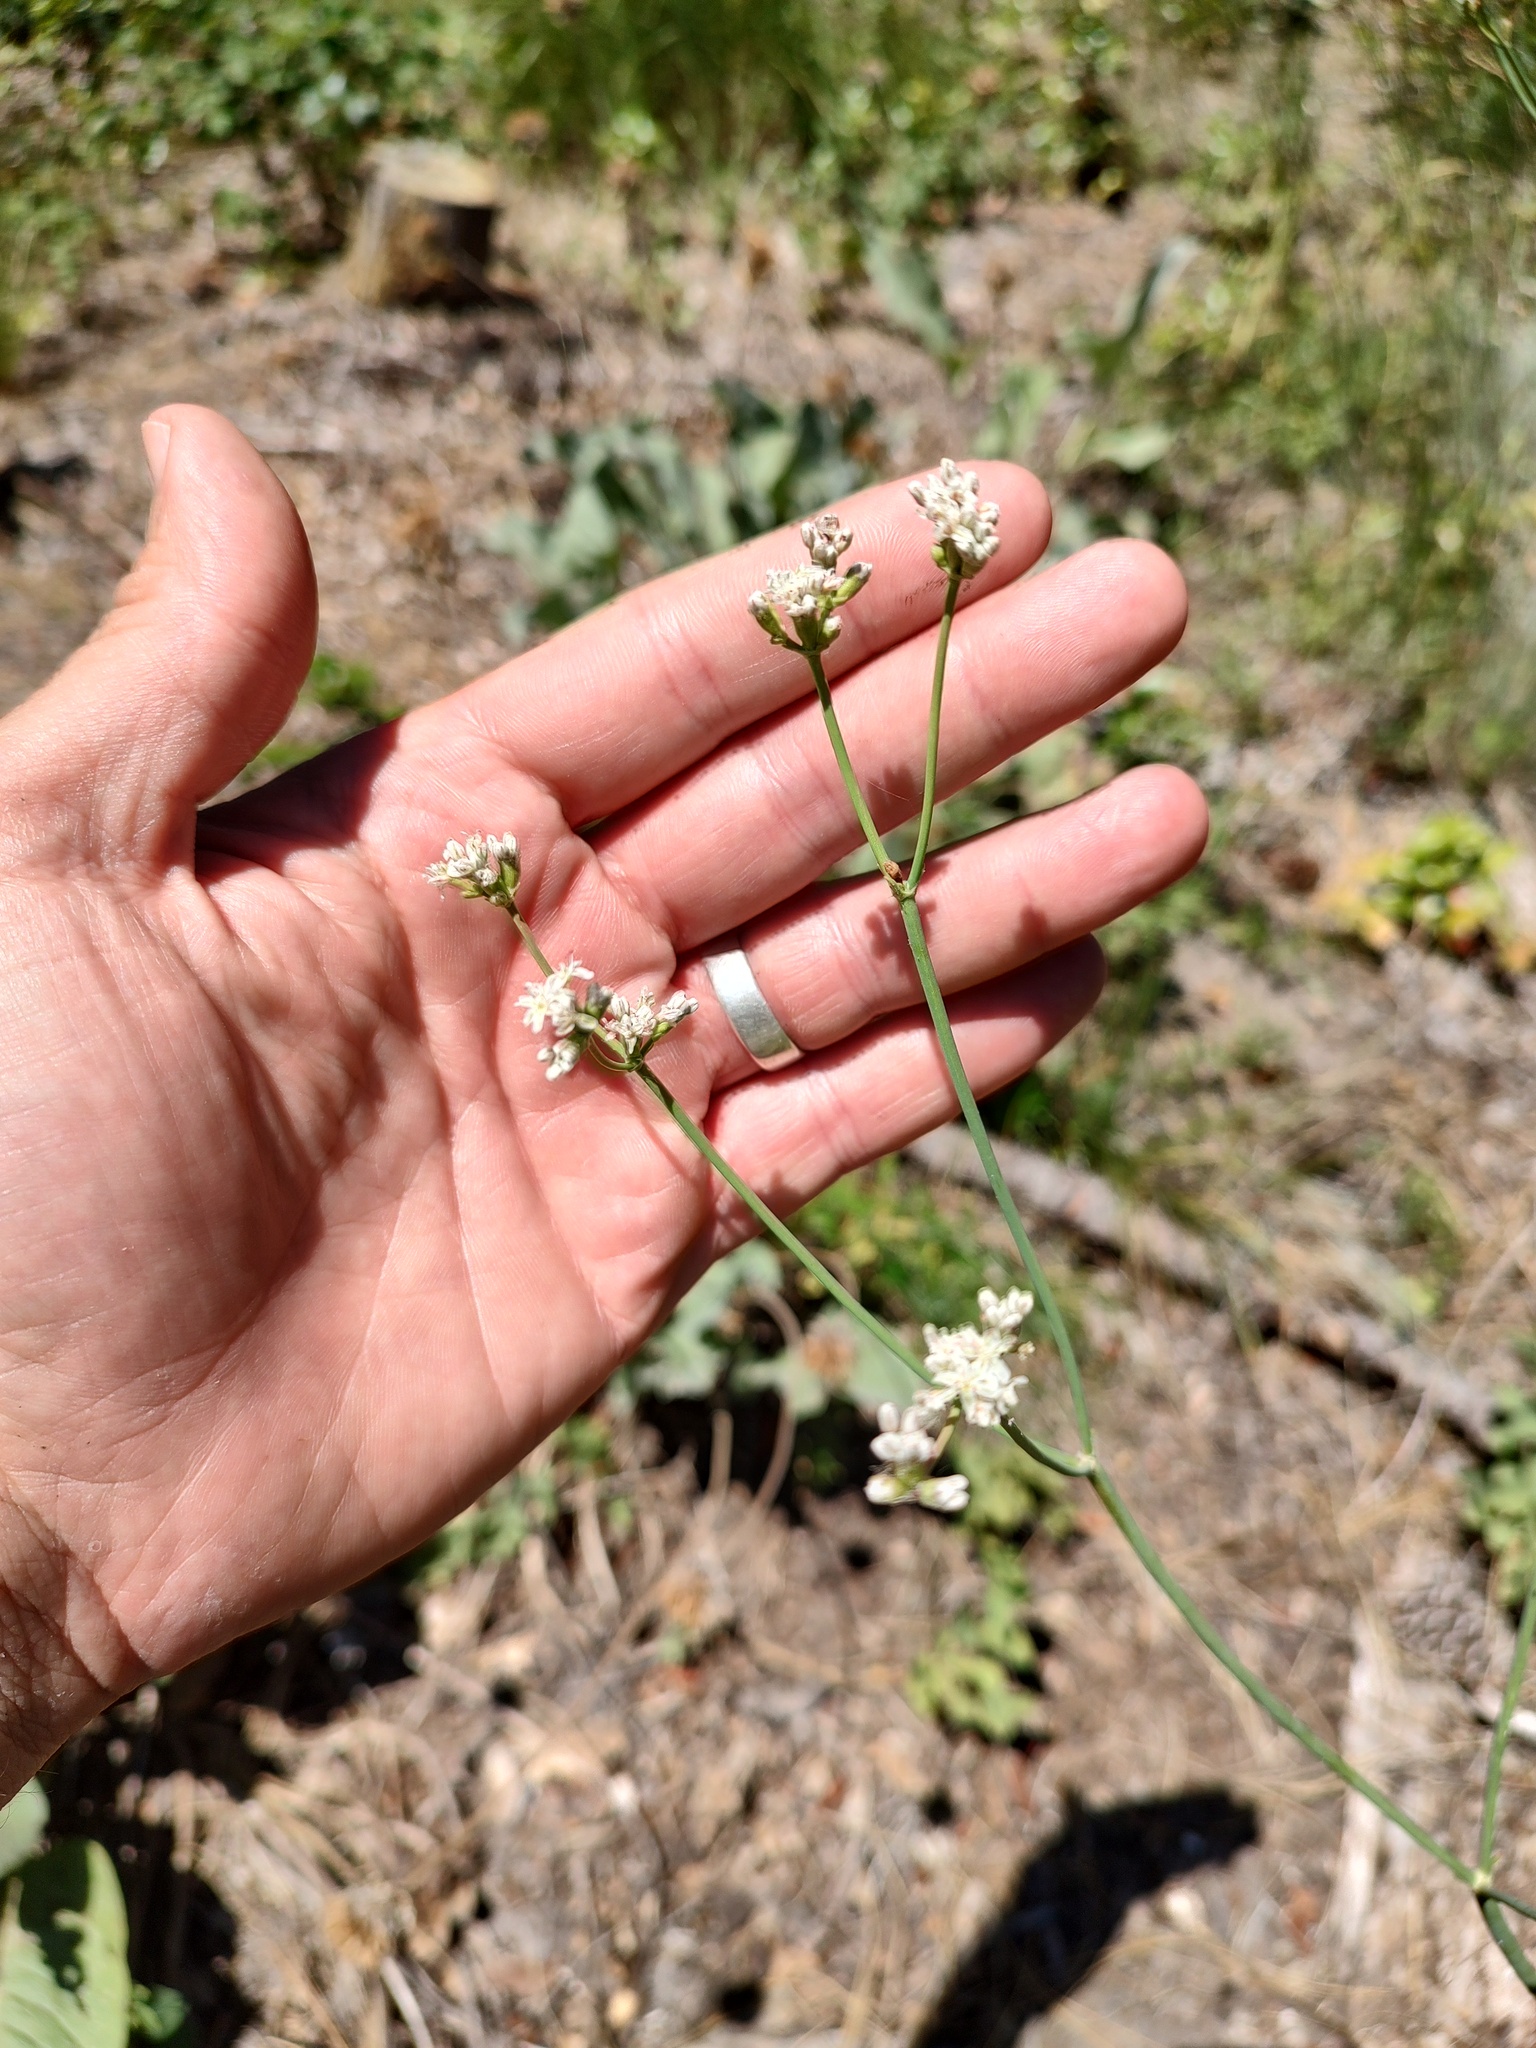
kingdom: Plantae
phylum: Tracheophyta
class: Magnoliopsida
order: Caryophyllales
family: Polygonaceae
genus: Eriogonum
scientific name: Eriogonum elatum
